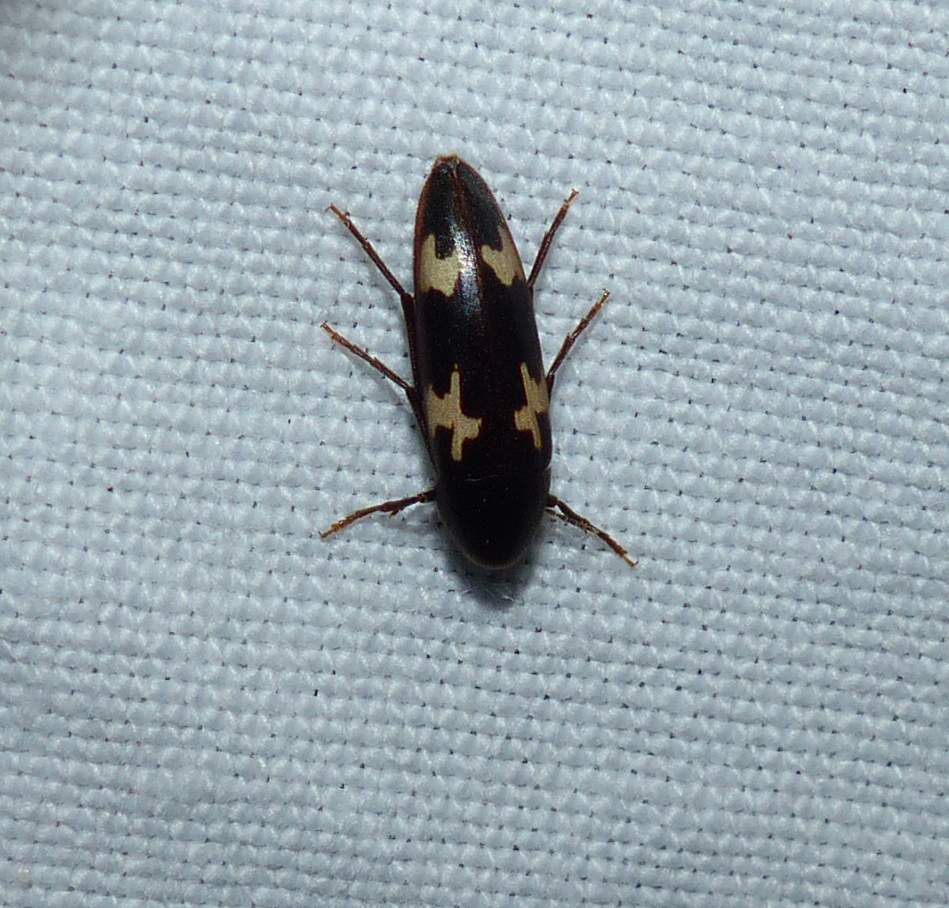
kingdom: Animalia
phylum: Arthropoda
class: Insecta
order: Coleoptera
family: Melandryidae
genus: Dircaea
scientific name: Dircaea liturata
